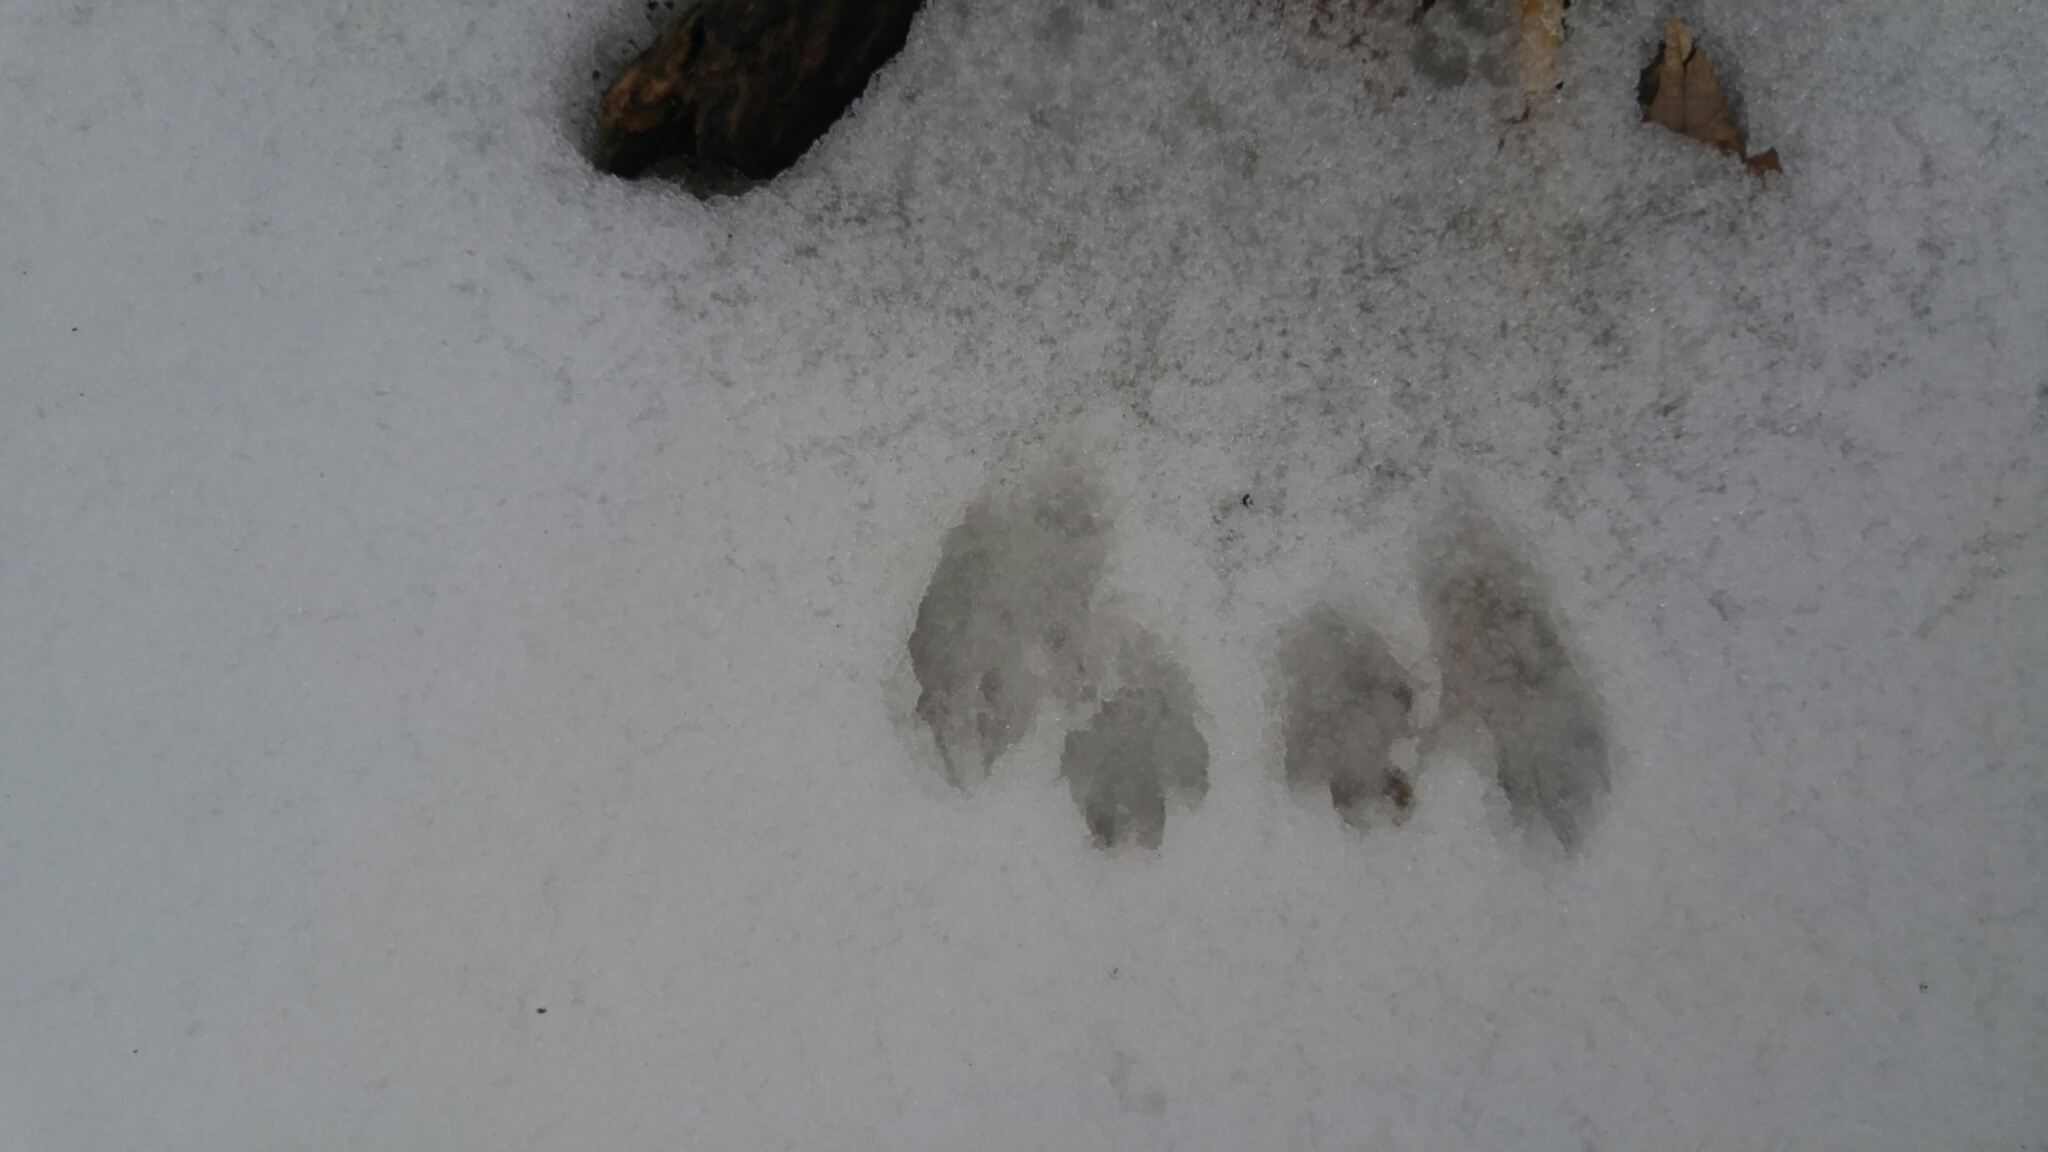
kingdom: Animalia
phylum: Chordata
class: Mammalia
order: Rodentia
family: Sciuridae
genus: Sciurus
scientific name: Sciurus carolinensis
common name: Eastern gray squirrel
